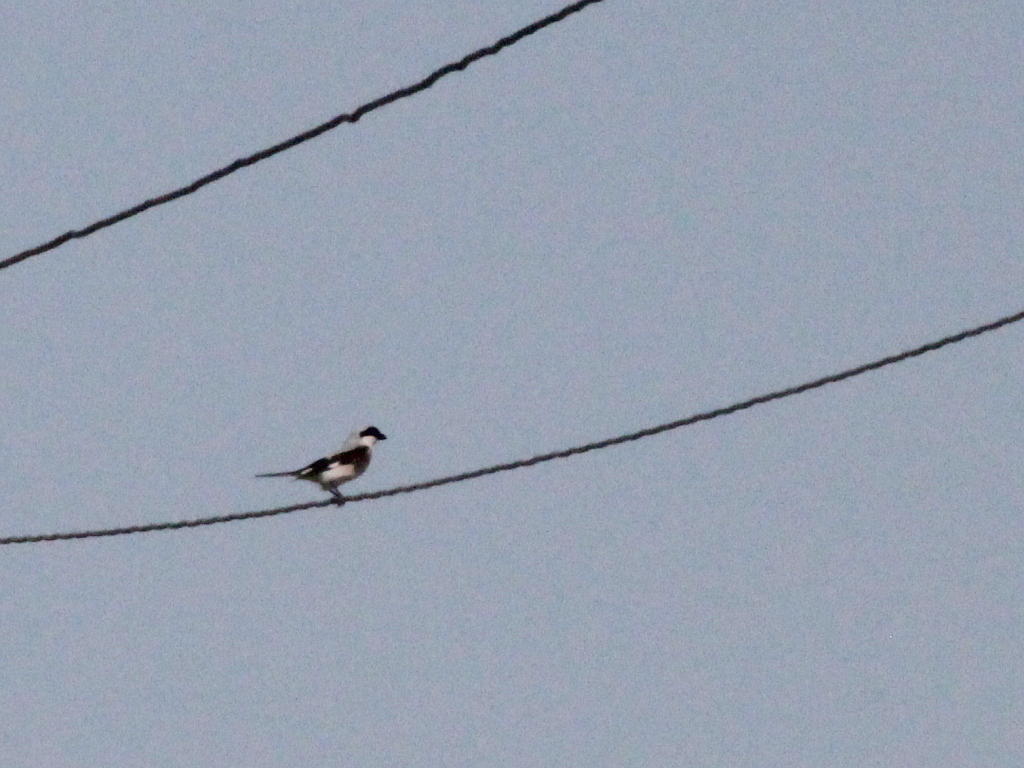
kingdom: Animalia
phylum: Chordata
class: Aves
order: Passeriformes
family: Laniidae
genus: Lanius
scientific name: Lanius minor
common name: Lesser grey shrike
